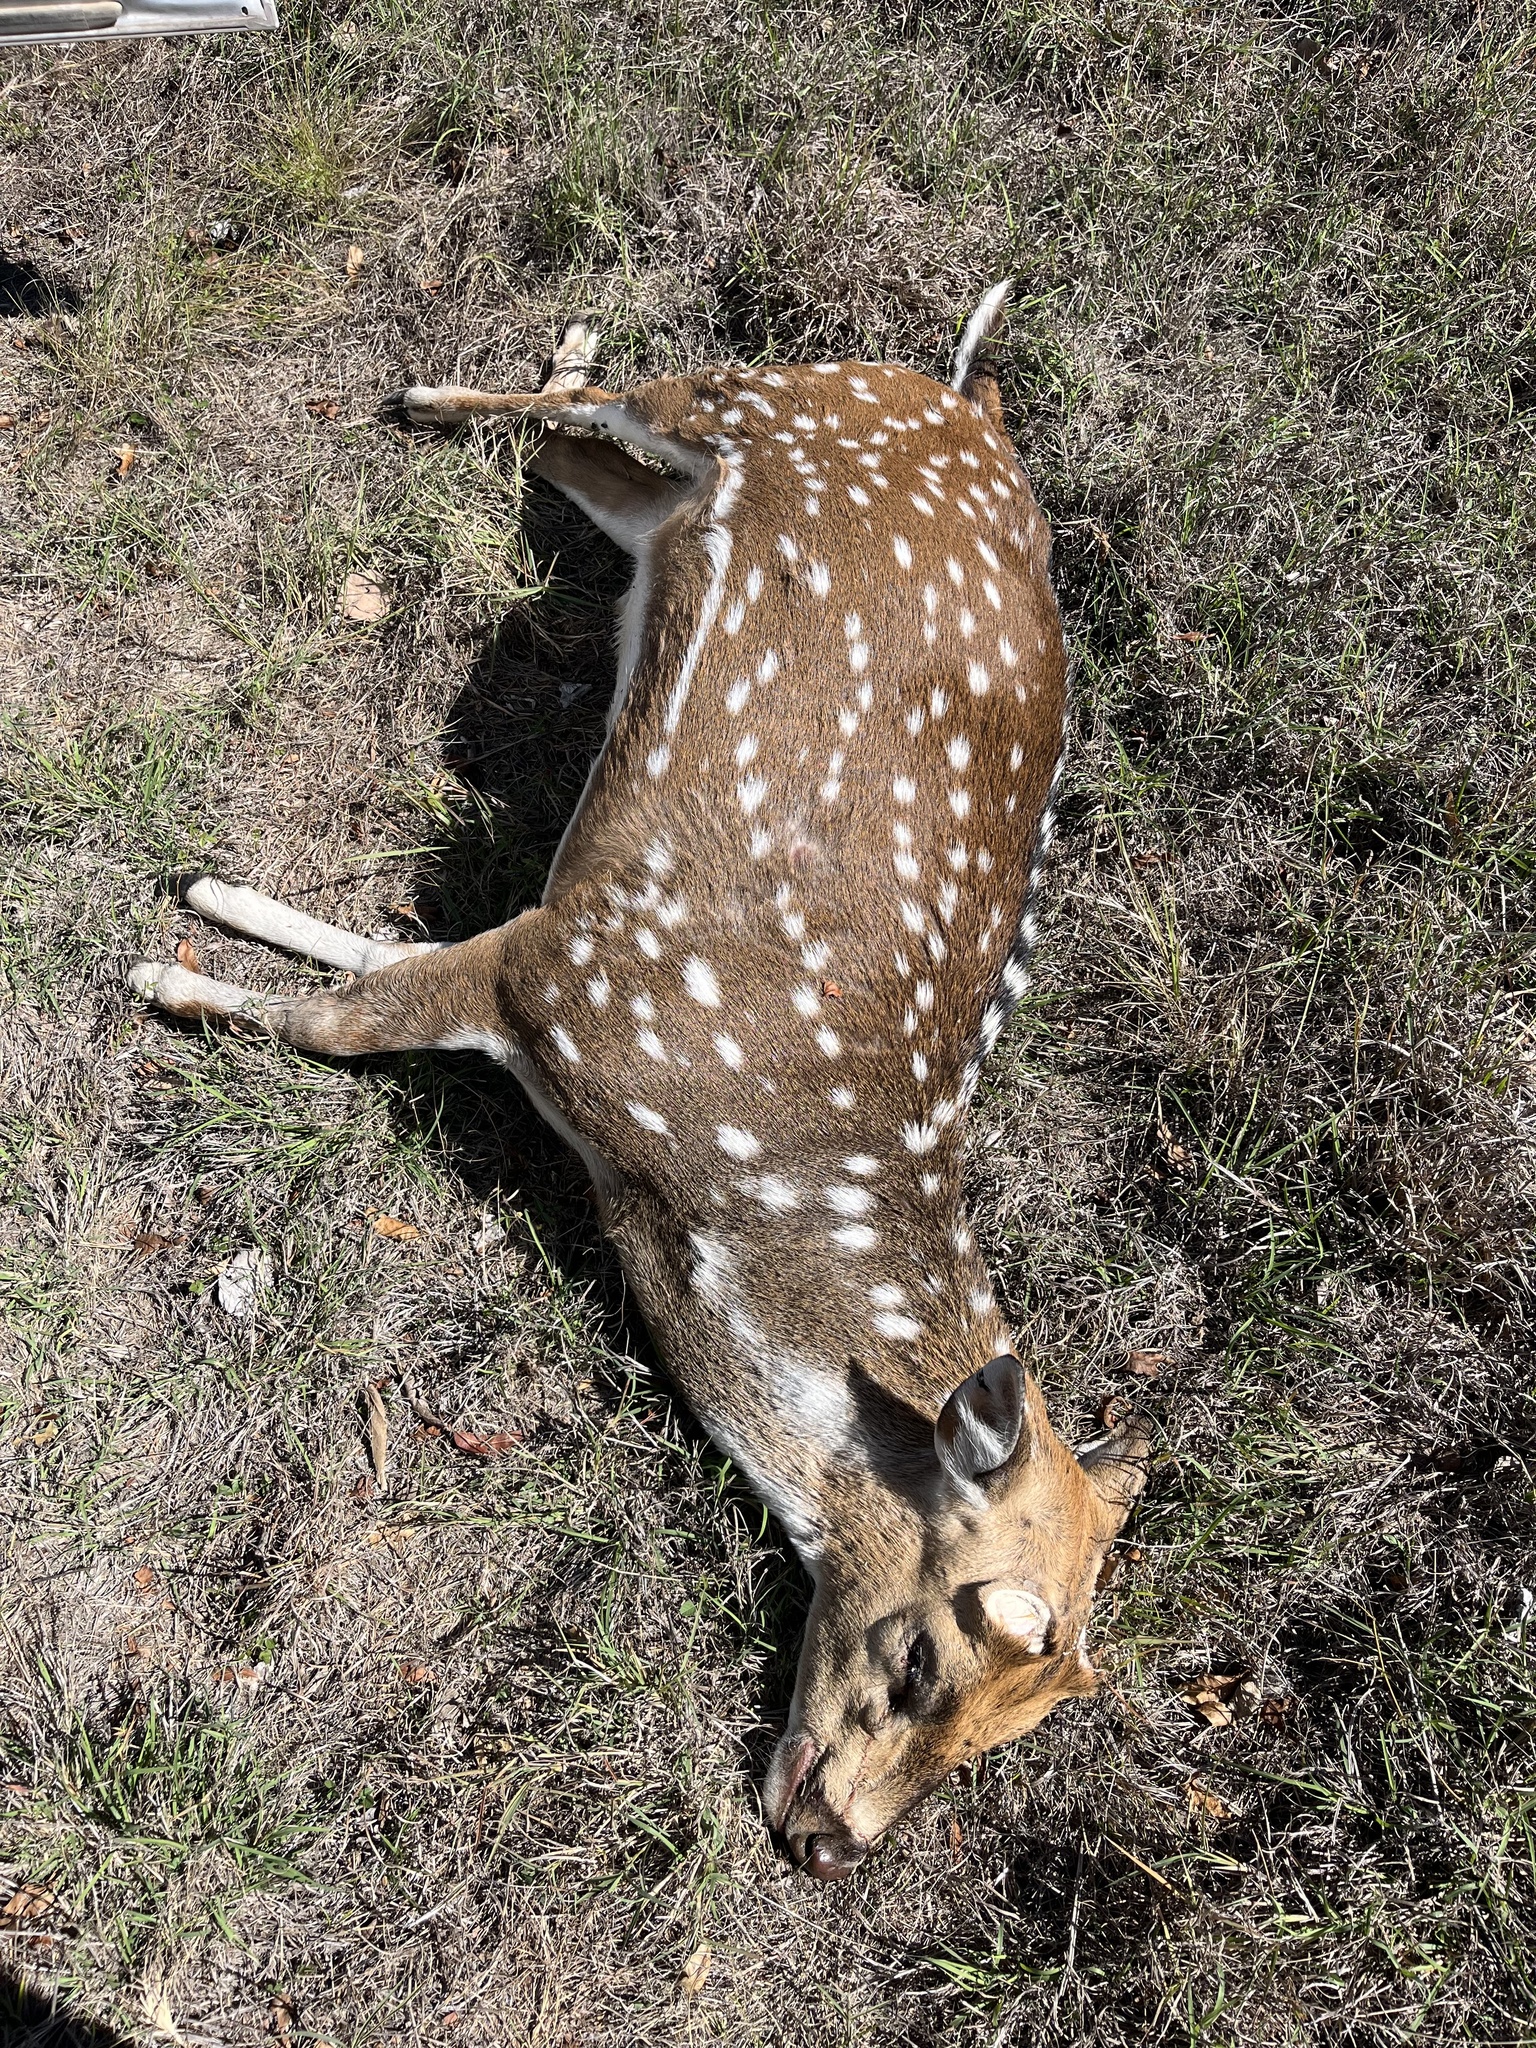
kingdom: Animalia
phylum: Chordata
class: Mammalia
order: Artiodactyla
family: Cervidae
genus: Axis
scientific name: Axis axis
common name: Chital
